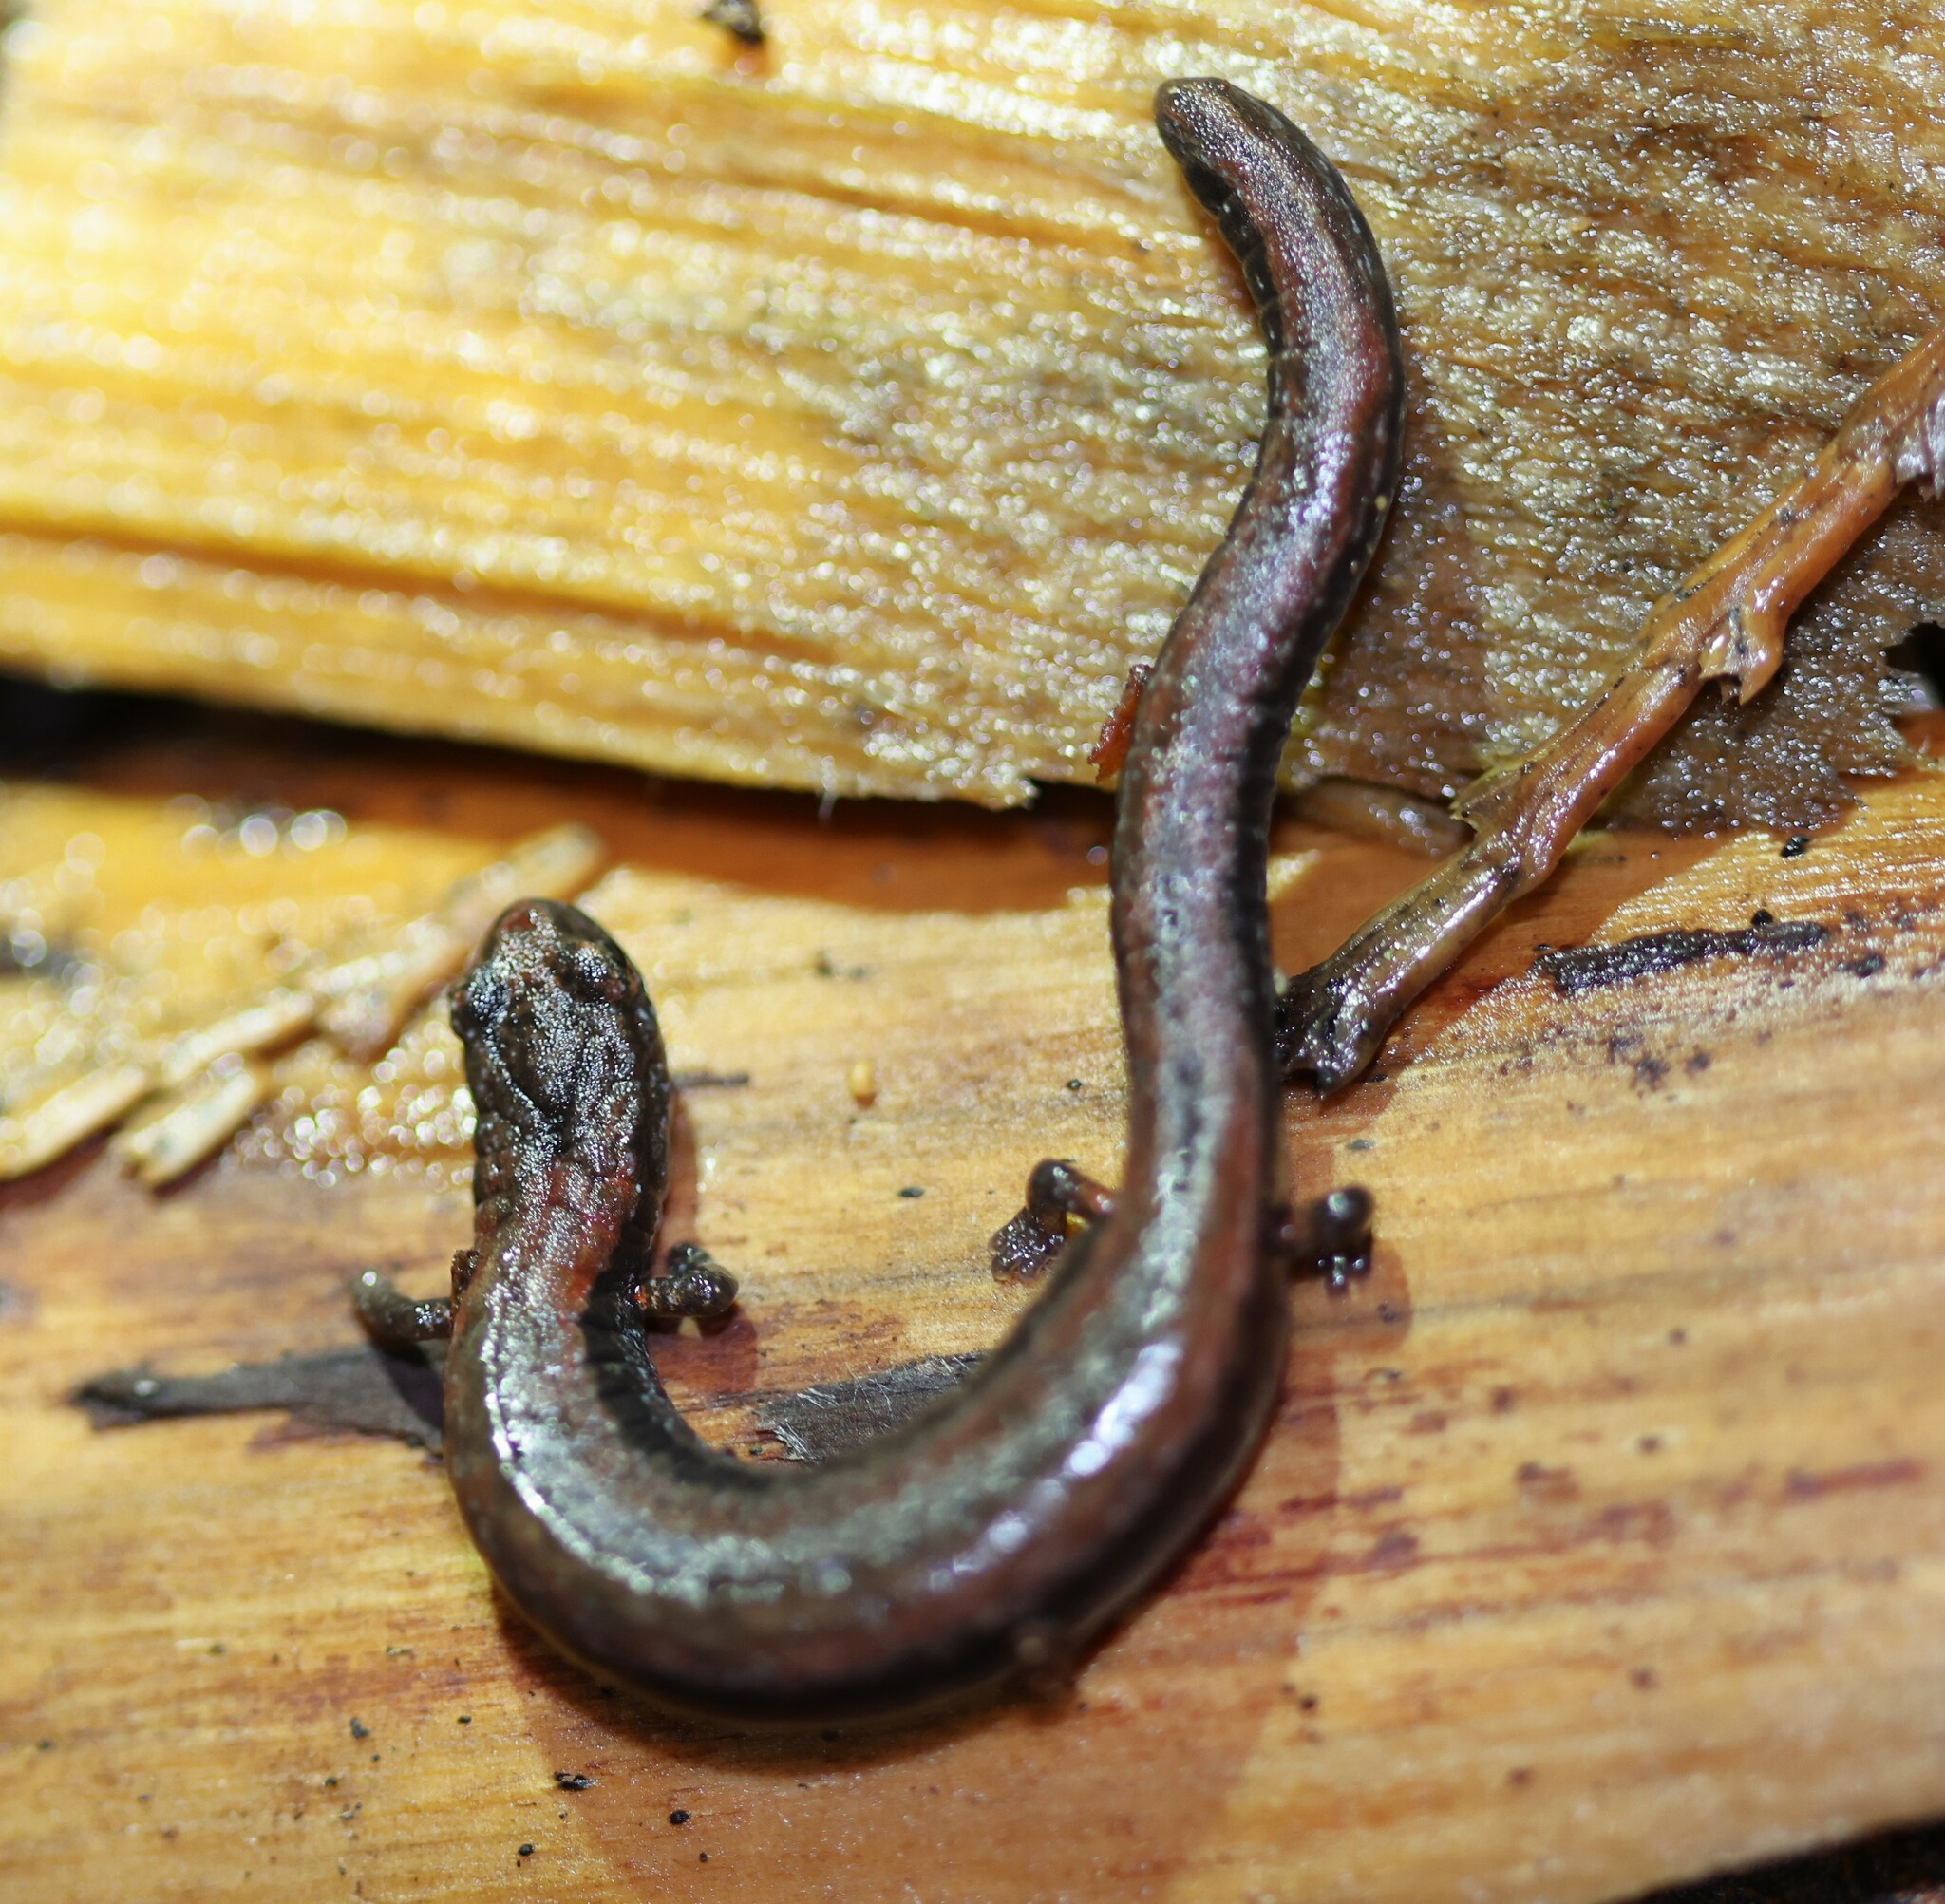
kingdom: Animalia
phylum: Chordata
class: Amphibia
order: Caudata
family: Plethodontidae
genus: Batrachoseps
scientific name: Batrachoseps gregarius
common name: Gregarious slender salamander
